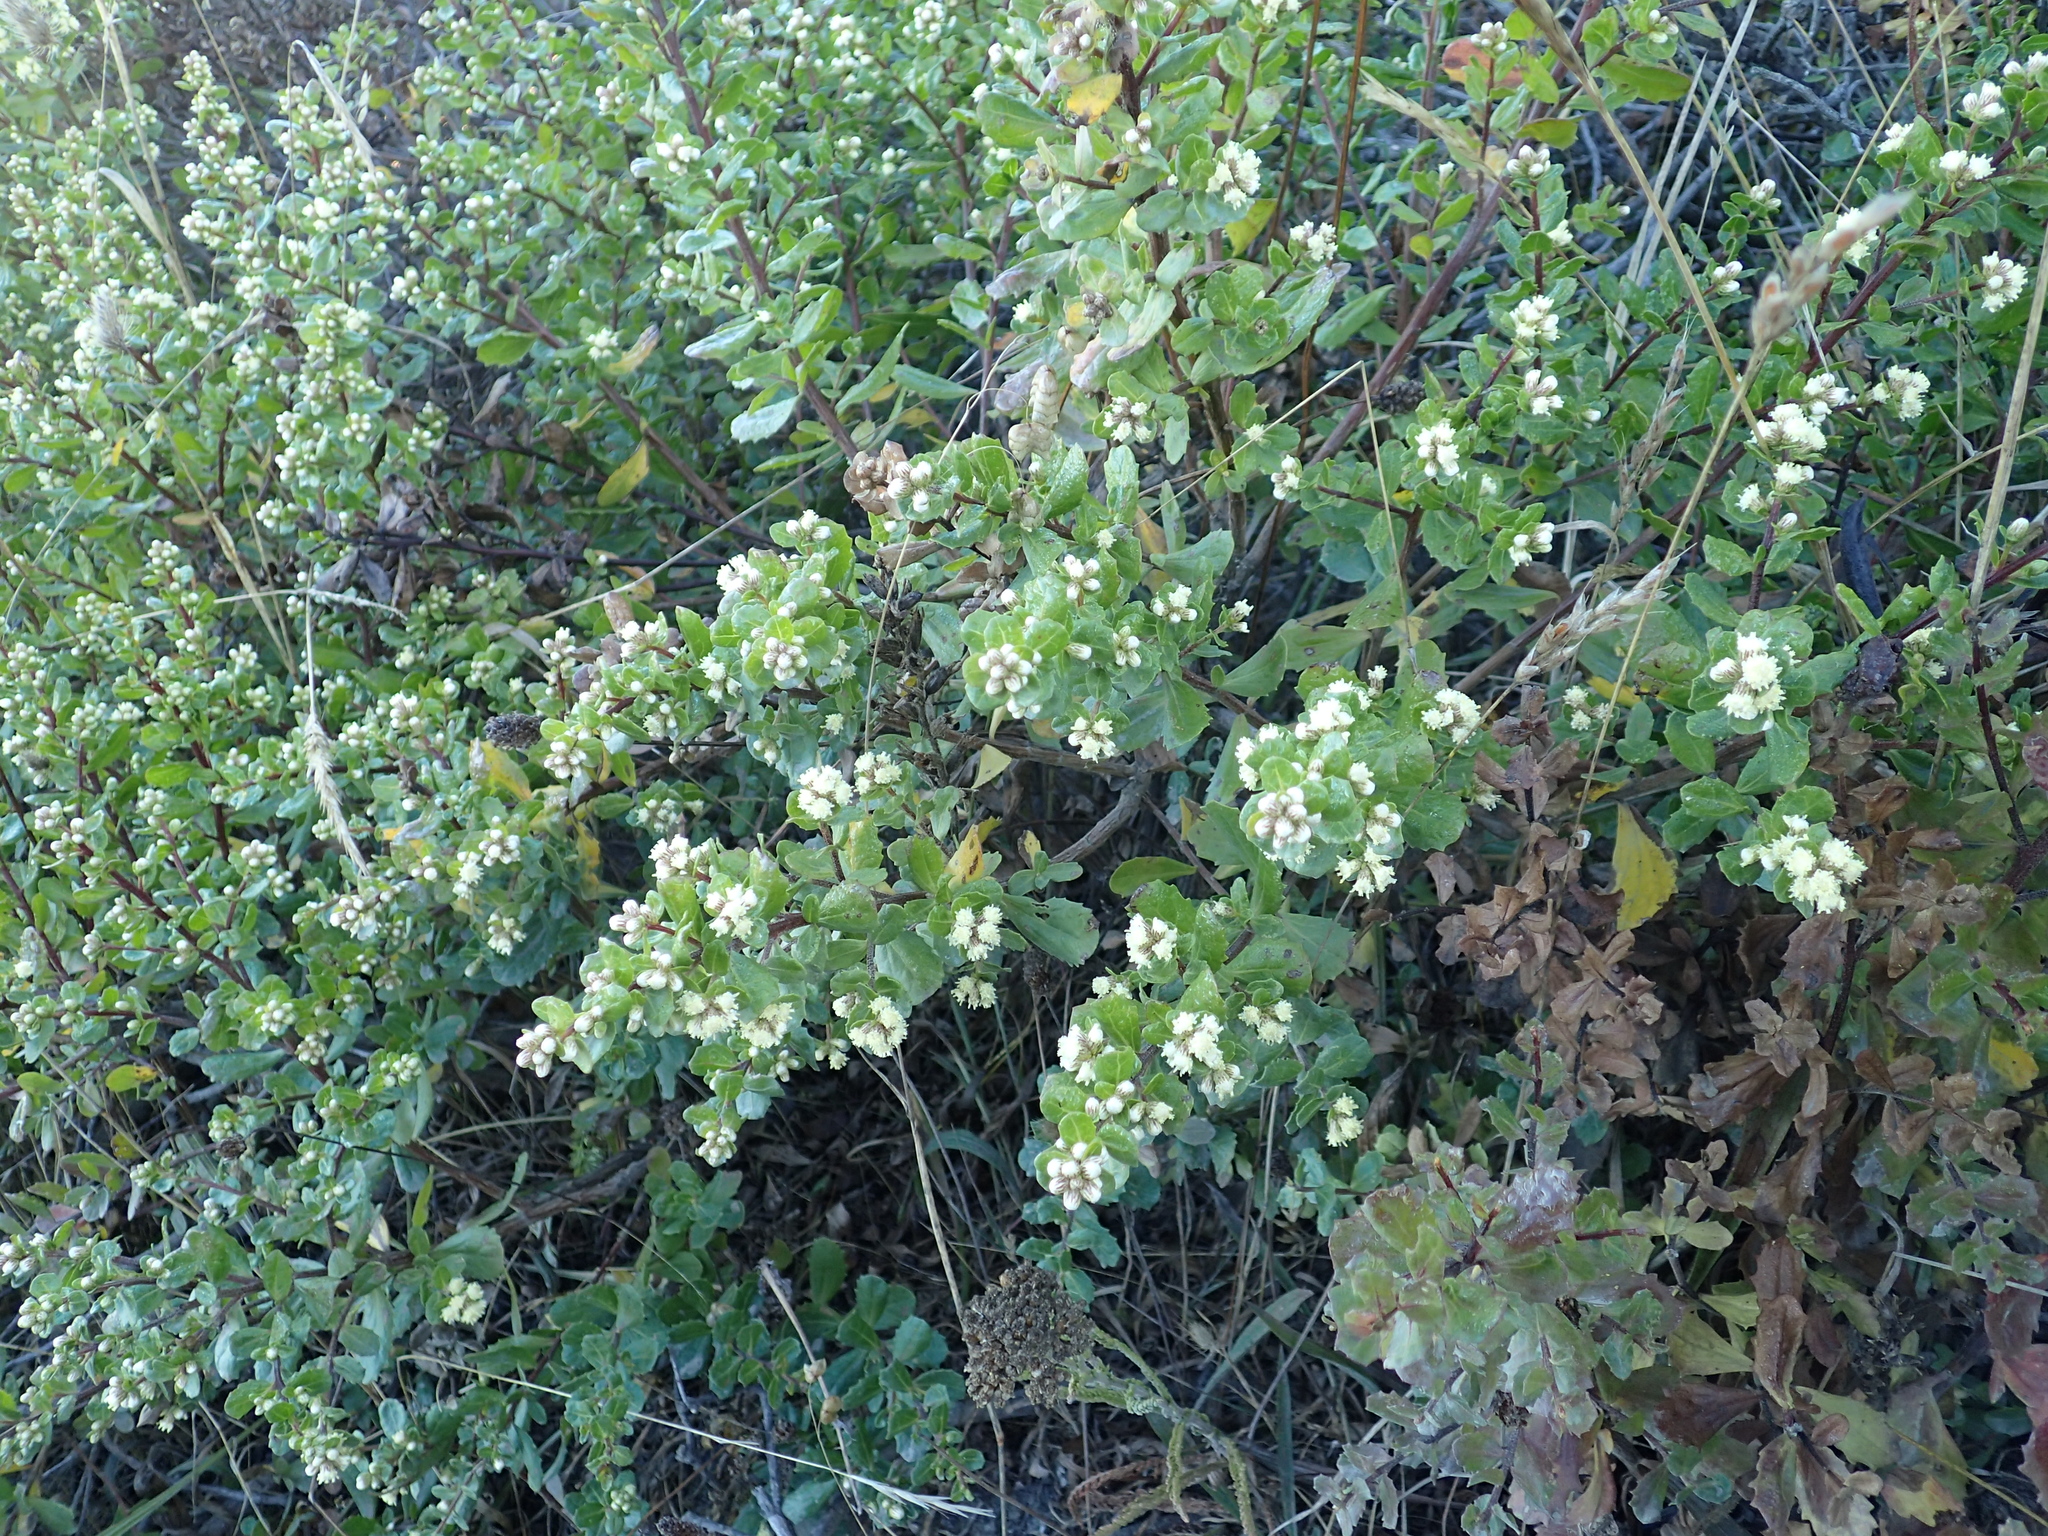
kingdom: Plantae
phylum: Tracheophyta
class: Magnoliopsida
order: Asterales
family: Asteraceae
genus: Baccharis
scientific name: Baccharis pilularis
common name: Coyotebrush
